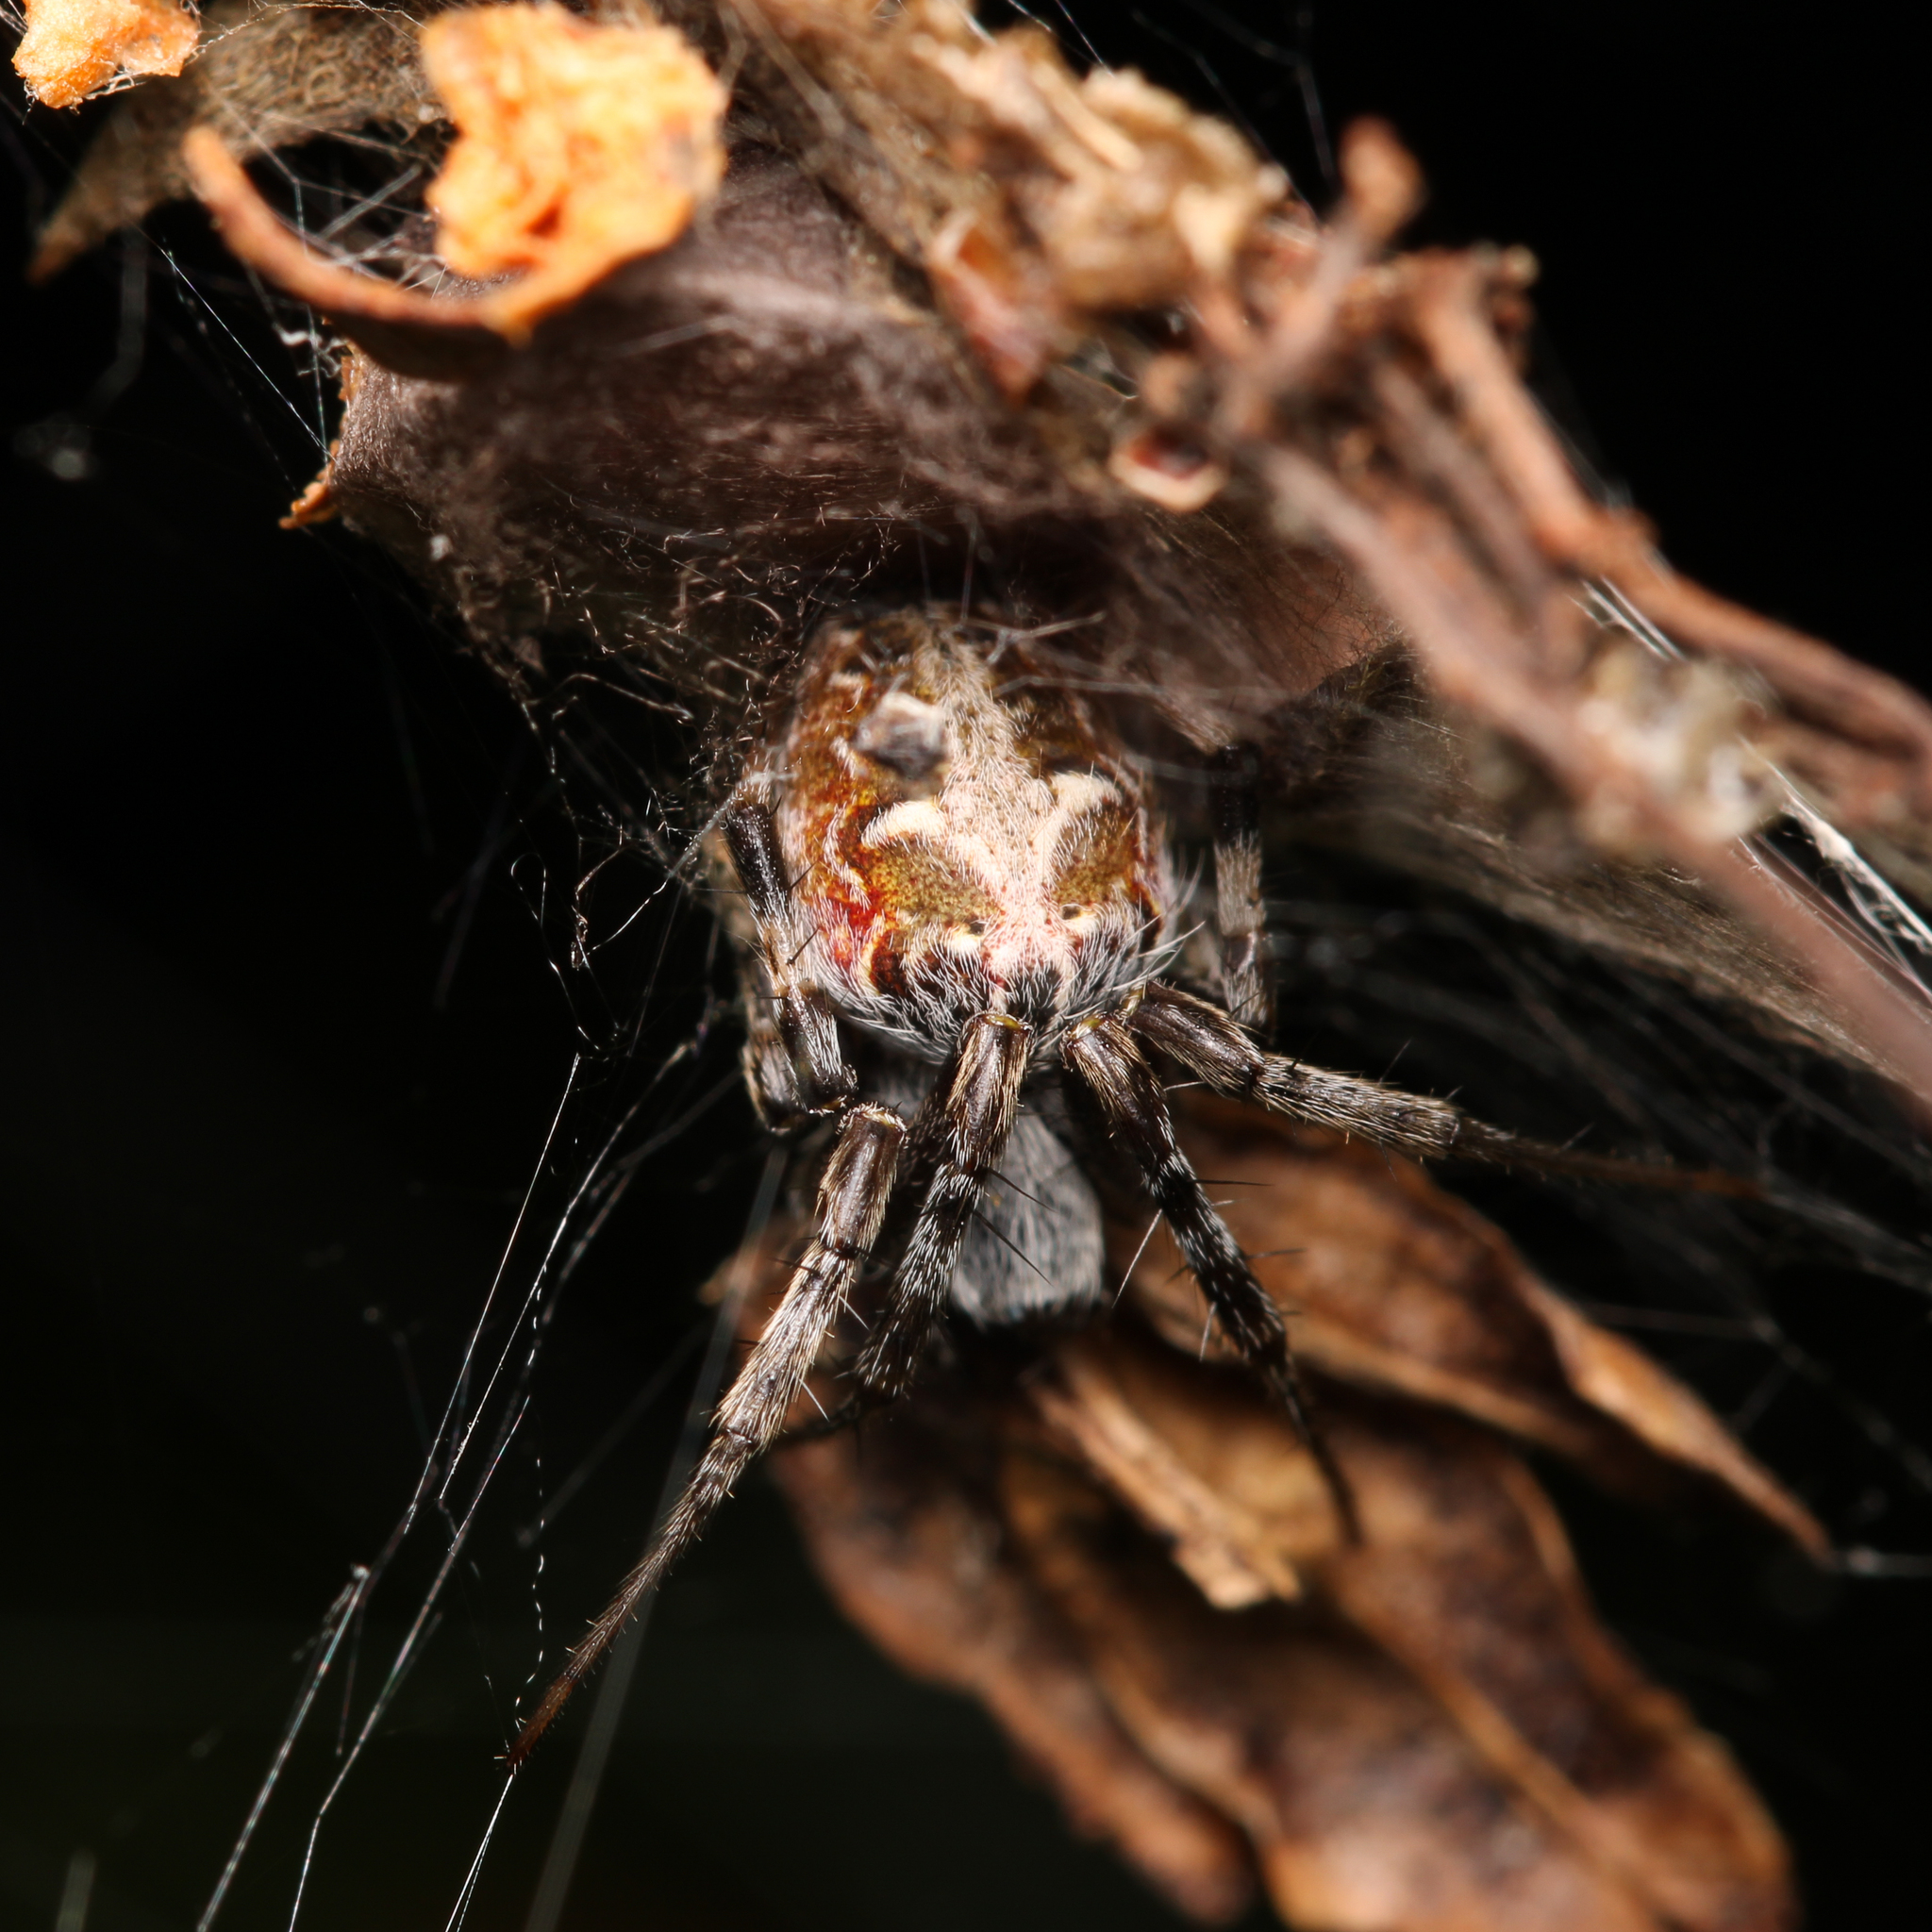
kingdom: Animalia
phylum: Arthropoda
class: Arachnida
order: Araneae
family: Araneidae
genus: Metepeira
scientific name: Metepeira labyrinthea
